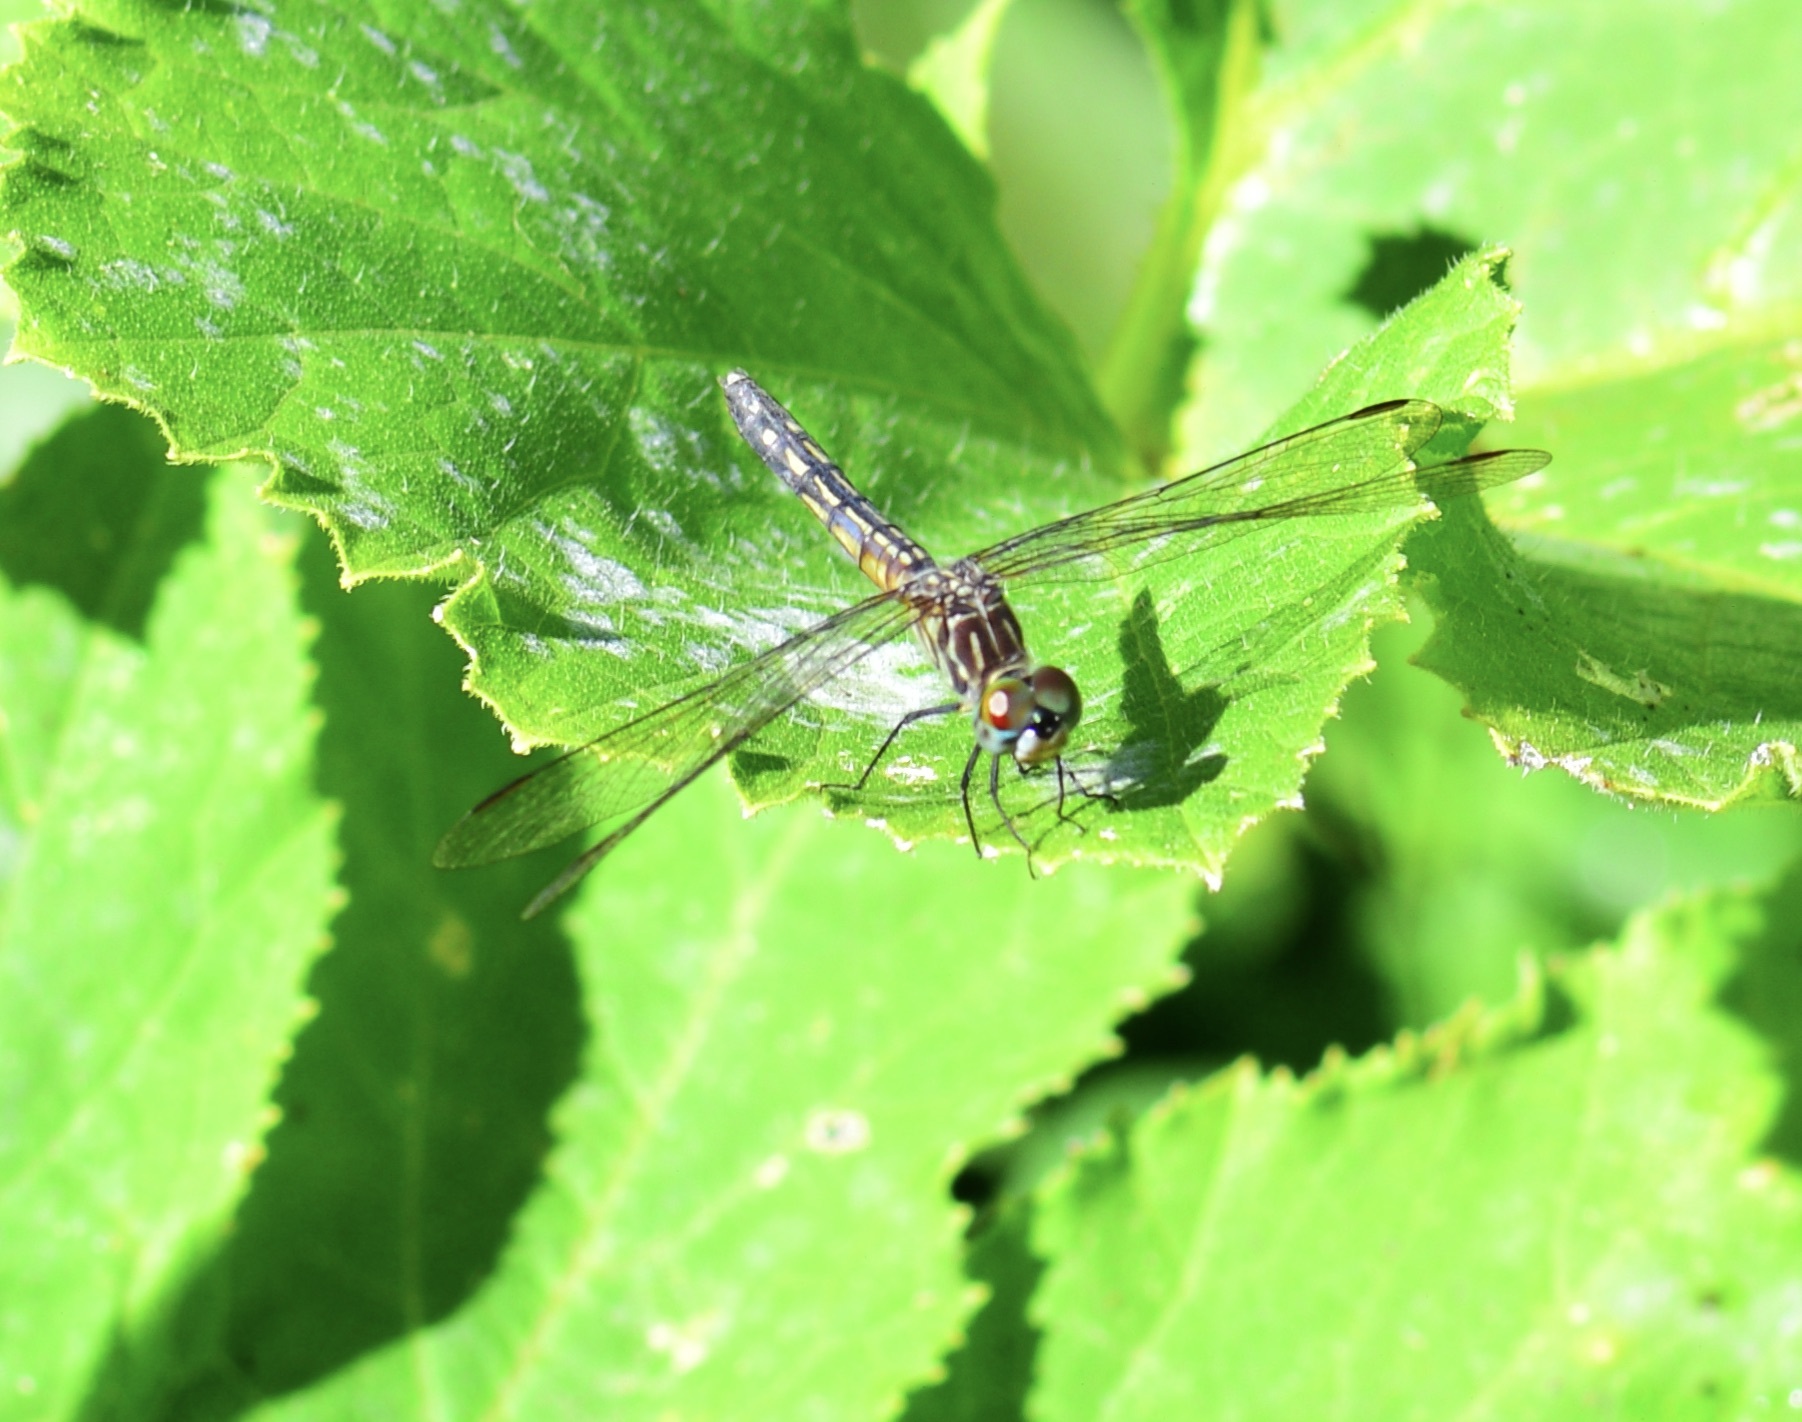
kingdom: Animalia
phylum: Arthropoda
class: Insecta
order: Odonata
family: Libellulidae
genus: Pachydiplax
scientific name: Pachydiplax longipennis
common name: Blue dasher
